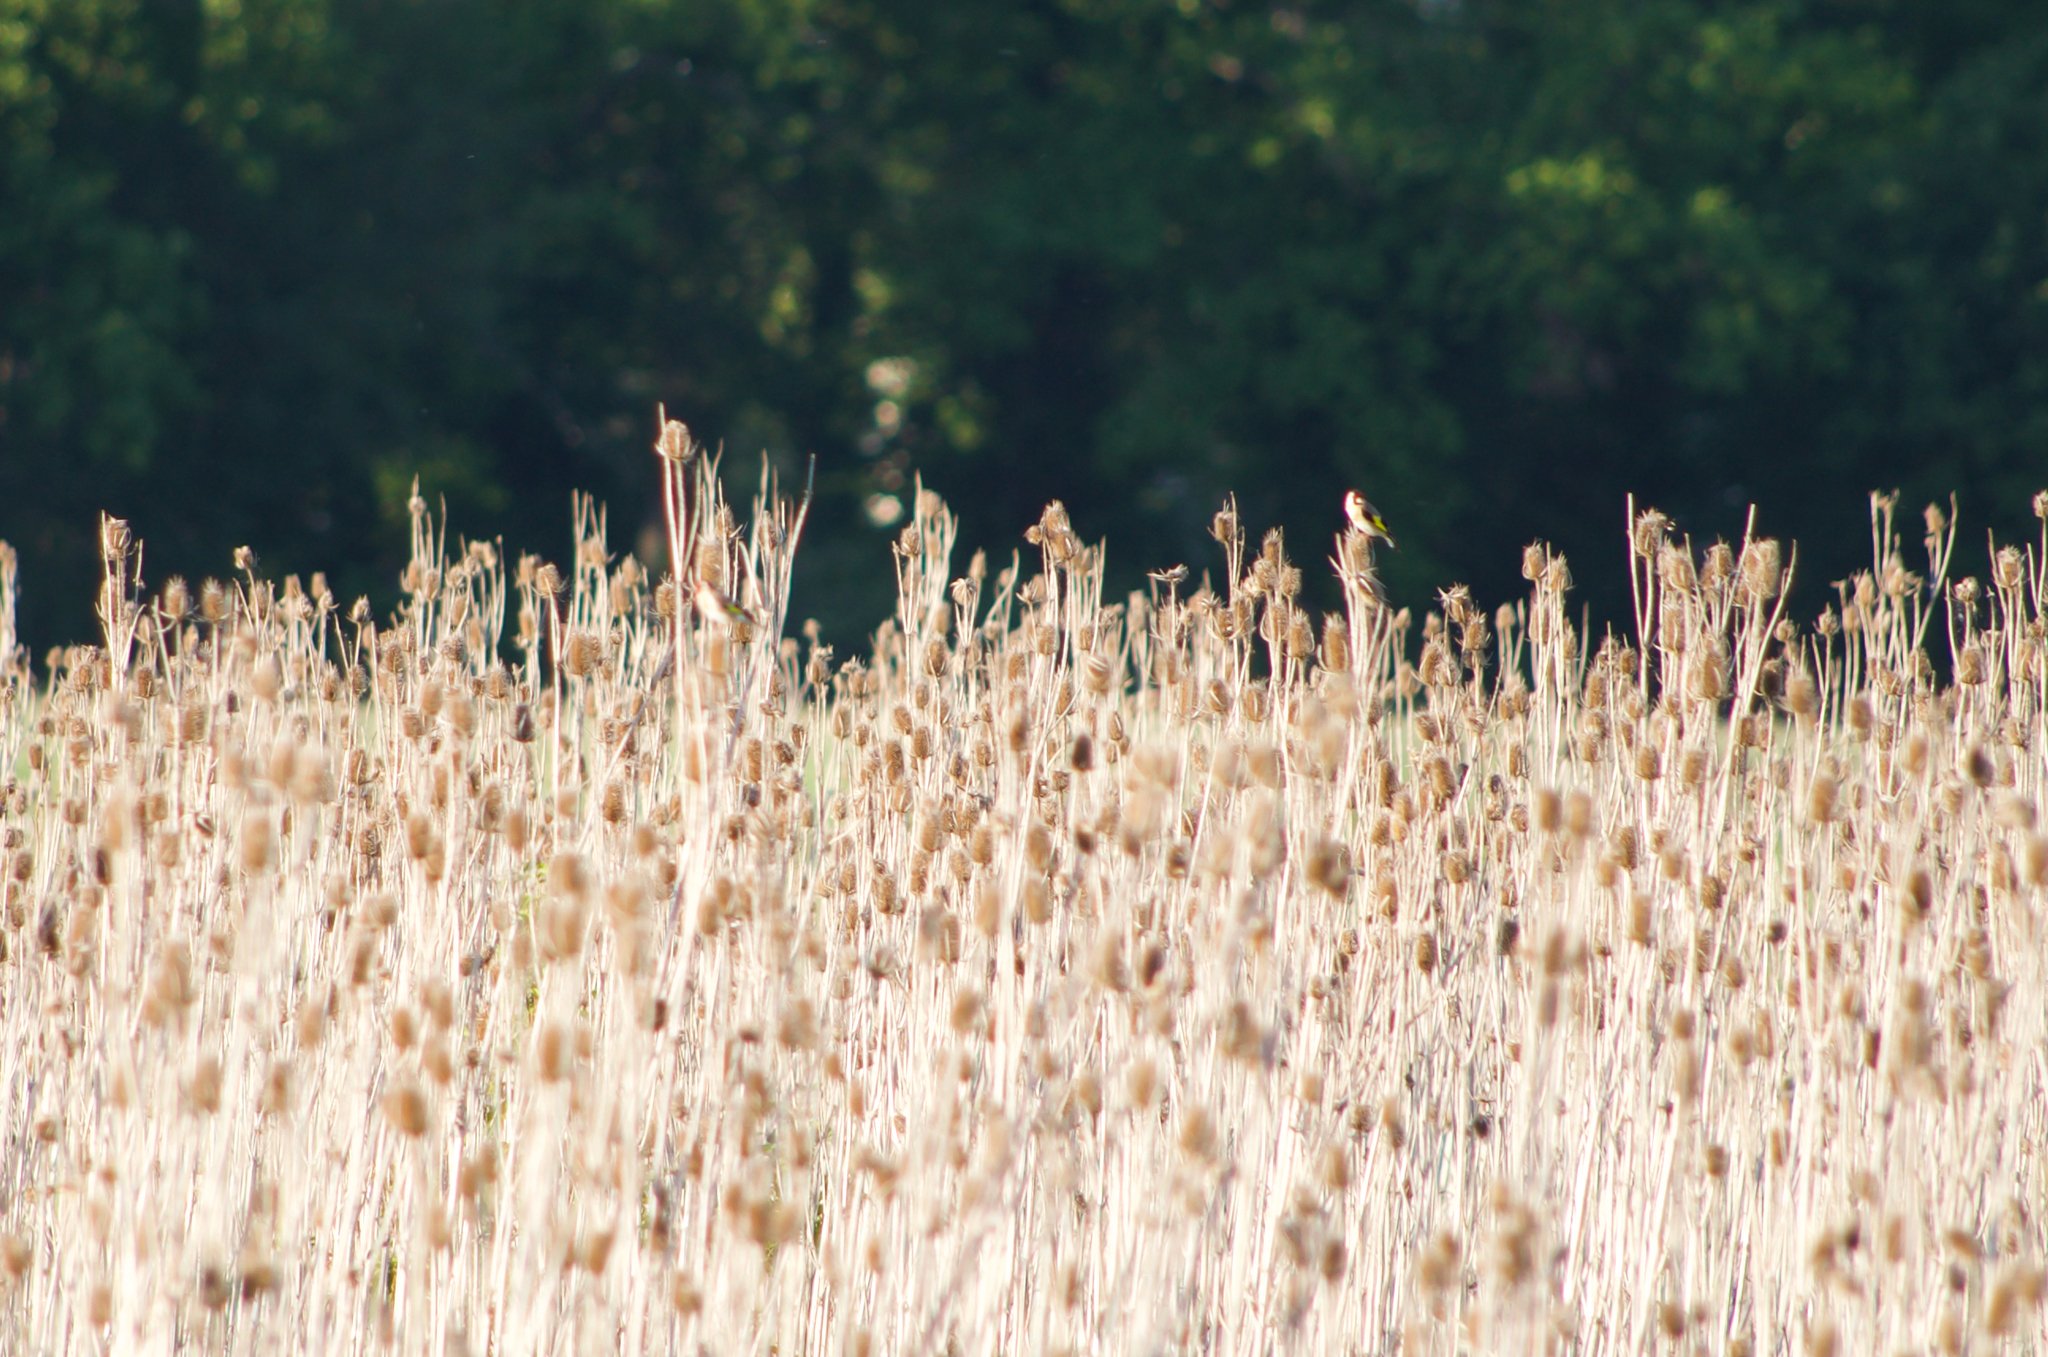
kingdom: Animalia
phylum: Chordata
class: Aves
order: Passeriformes
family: Fringillidae
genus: Carduelis
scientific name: Carduelis carduelis
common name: European goldfinch
